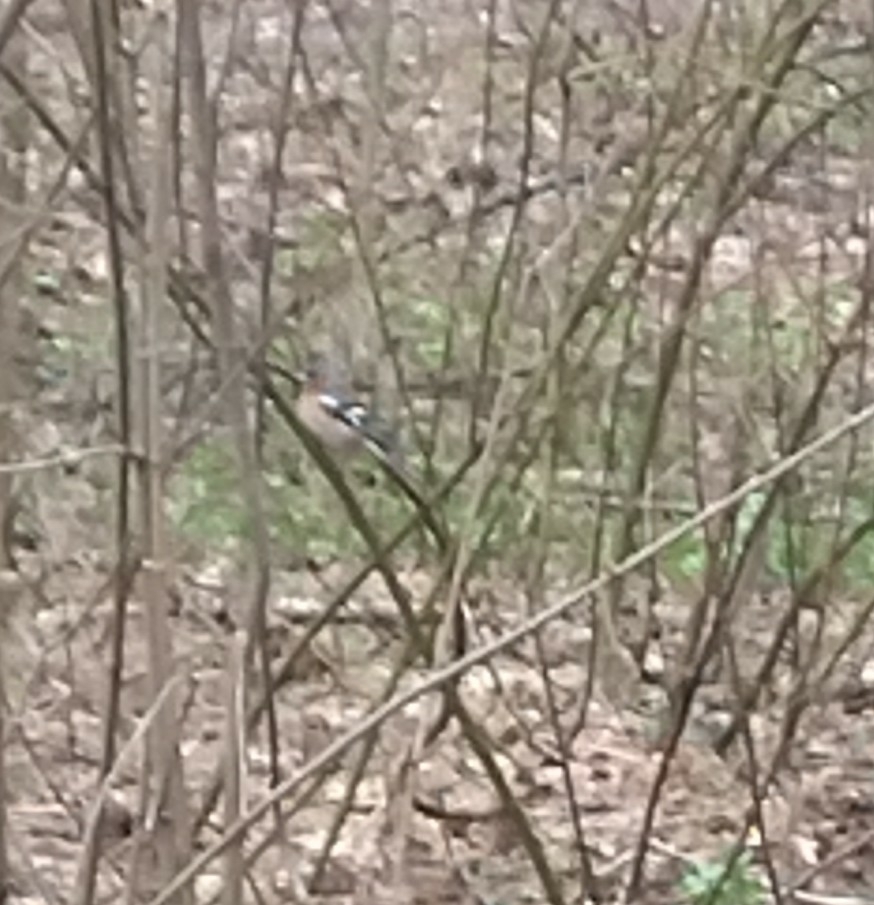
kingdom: Animalia
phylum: Chordata
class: Aves
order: Passeriformes
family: Fringillidae
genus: Fringilla
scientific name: Fringilla coelebs
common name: Common chaffinch
